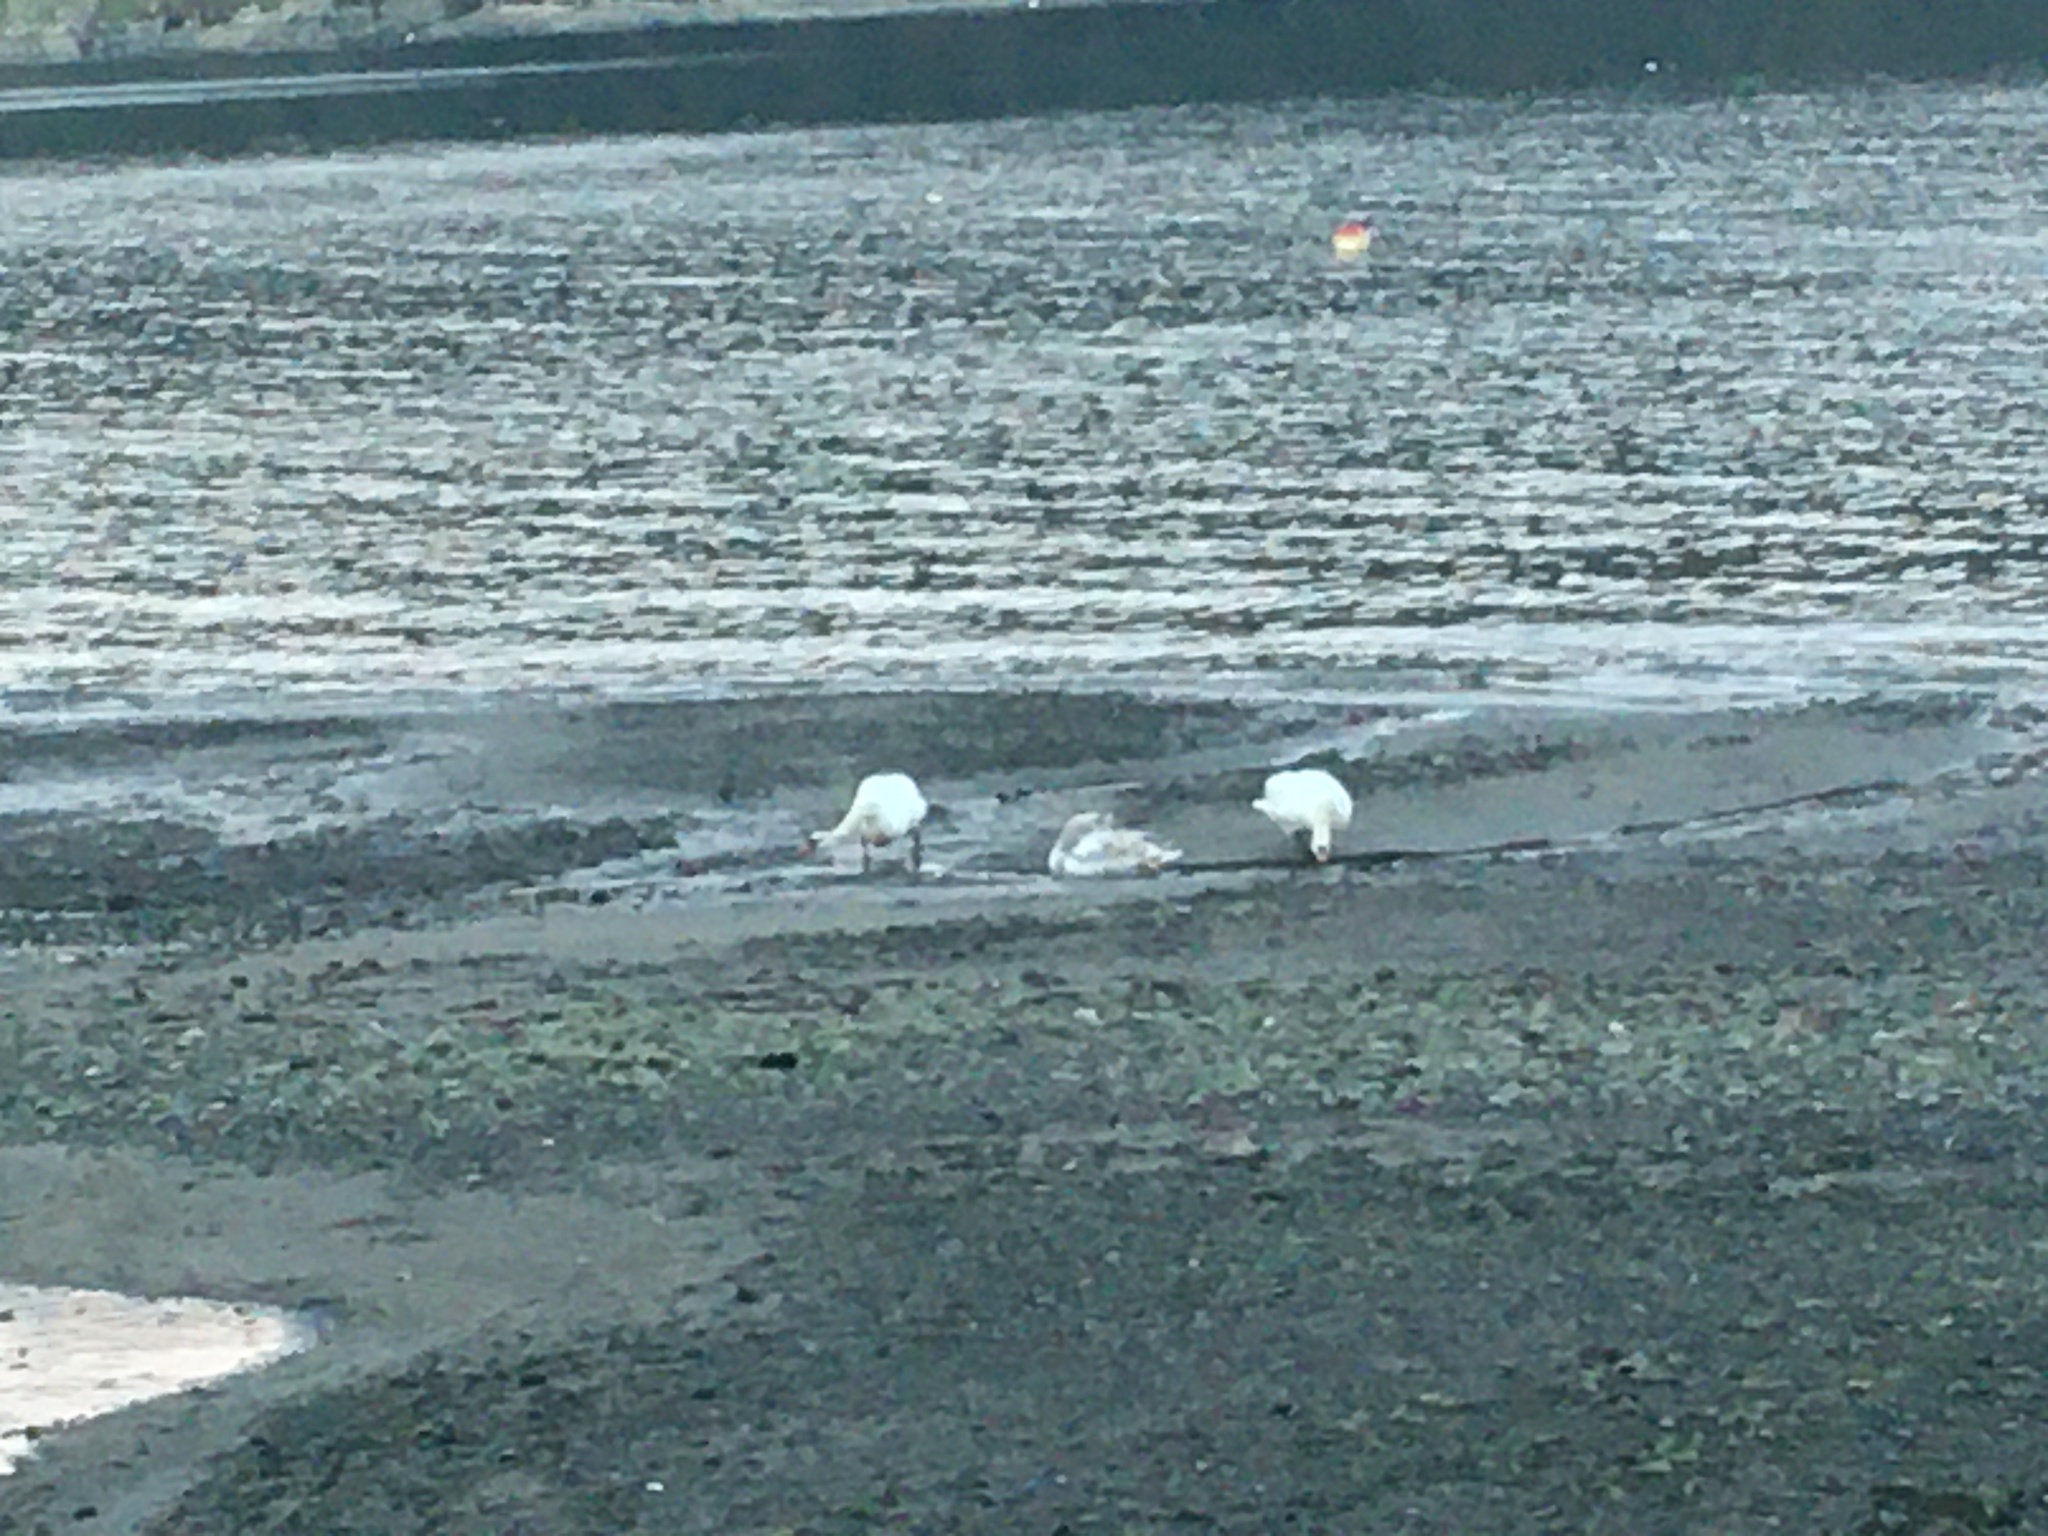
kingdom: Animalia
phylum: Chordata
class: Aves
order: Anseriformes
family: Anatidae
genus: Cygnus
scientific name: Cygnus olor
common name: Mute swan
